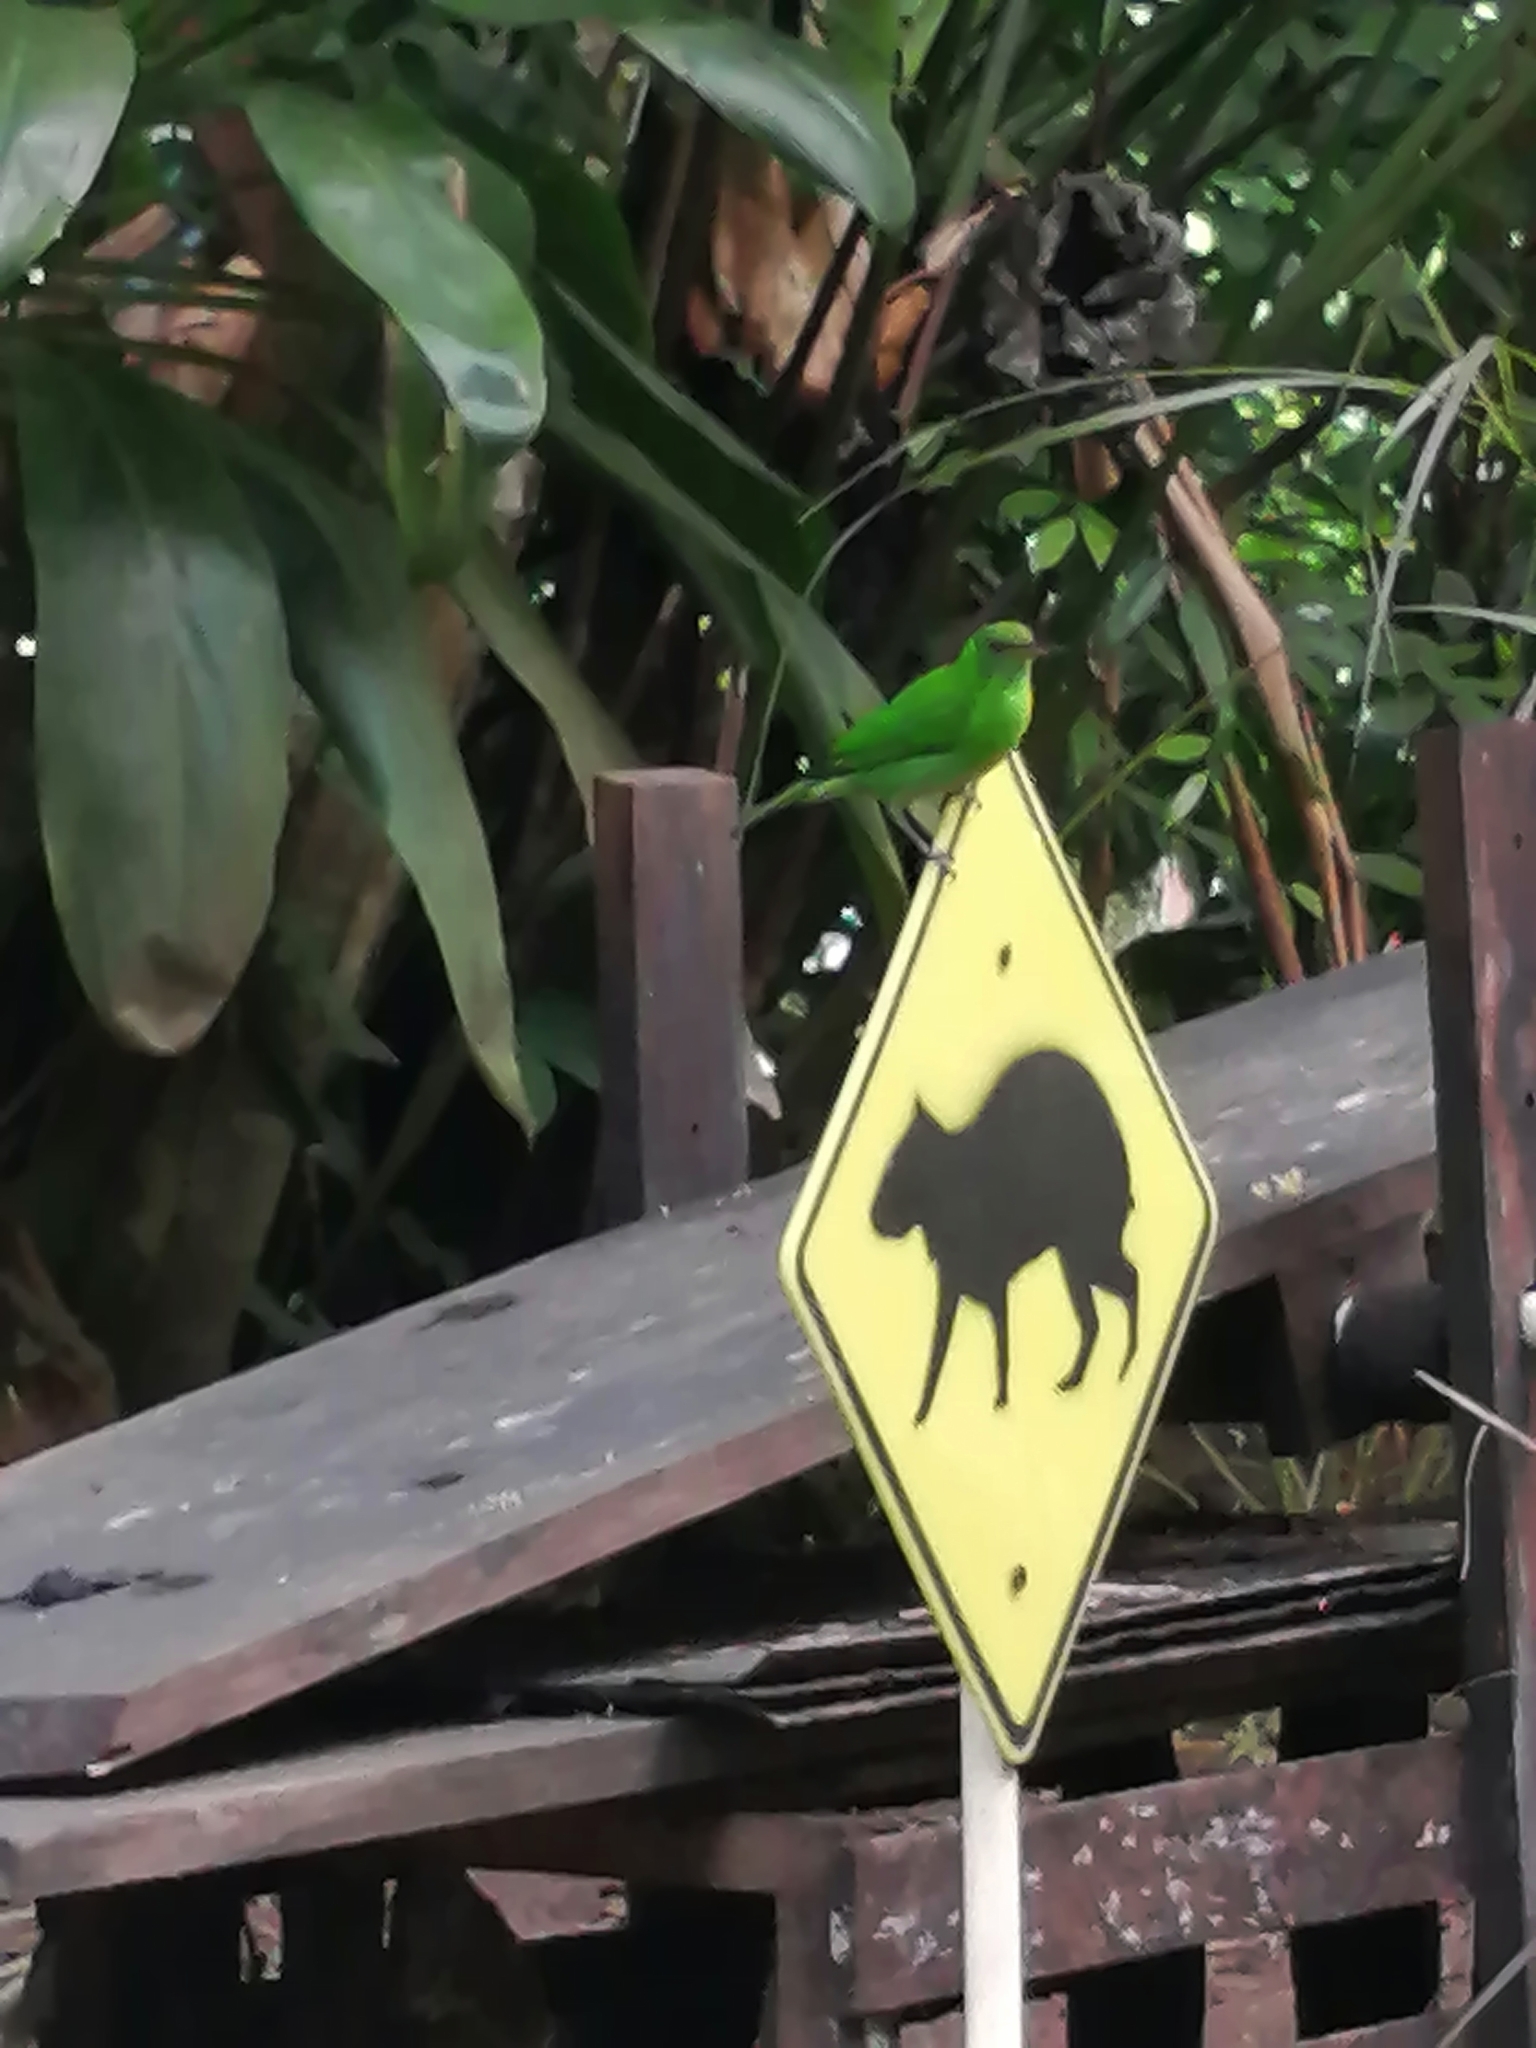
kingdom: Animalia
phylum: Chordata
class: Aves
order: Passeriformes
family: Thraupidae
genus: Chlorophanes
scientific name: Chlorophanes spiza
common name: Green honeycreeper
